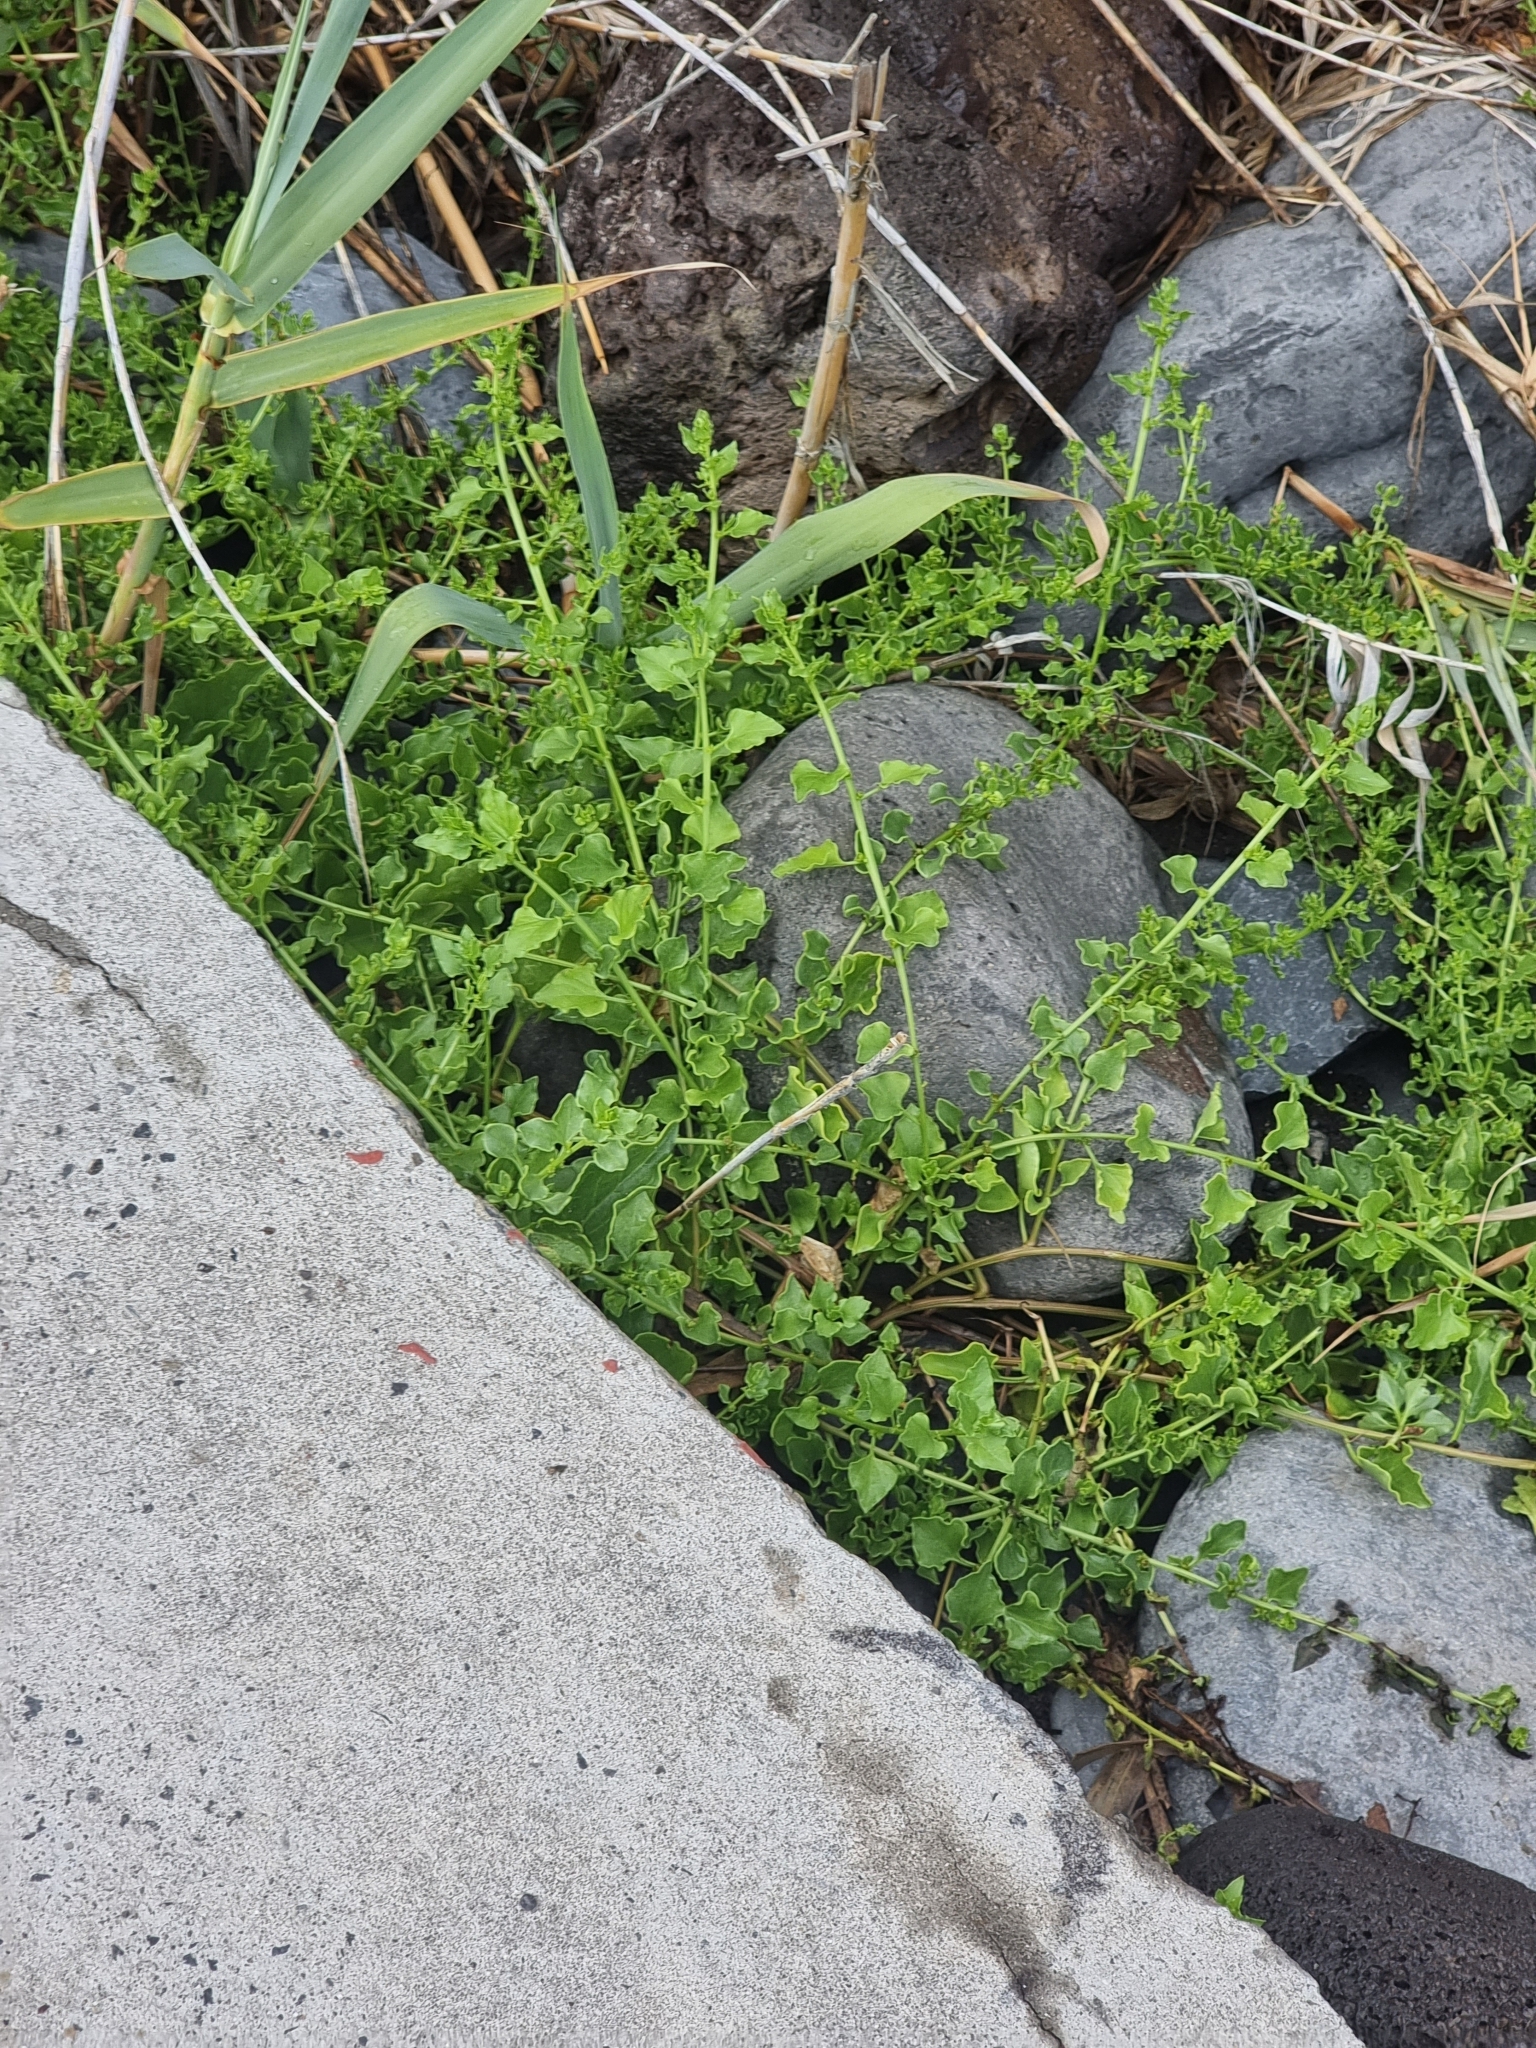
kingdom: Plantae
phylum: Tracheophyta
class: Magnoliopsida
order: Caryophyllales
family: Amaranthaceae
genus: Patellifolia
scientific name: Patellifolia procumbens
